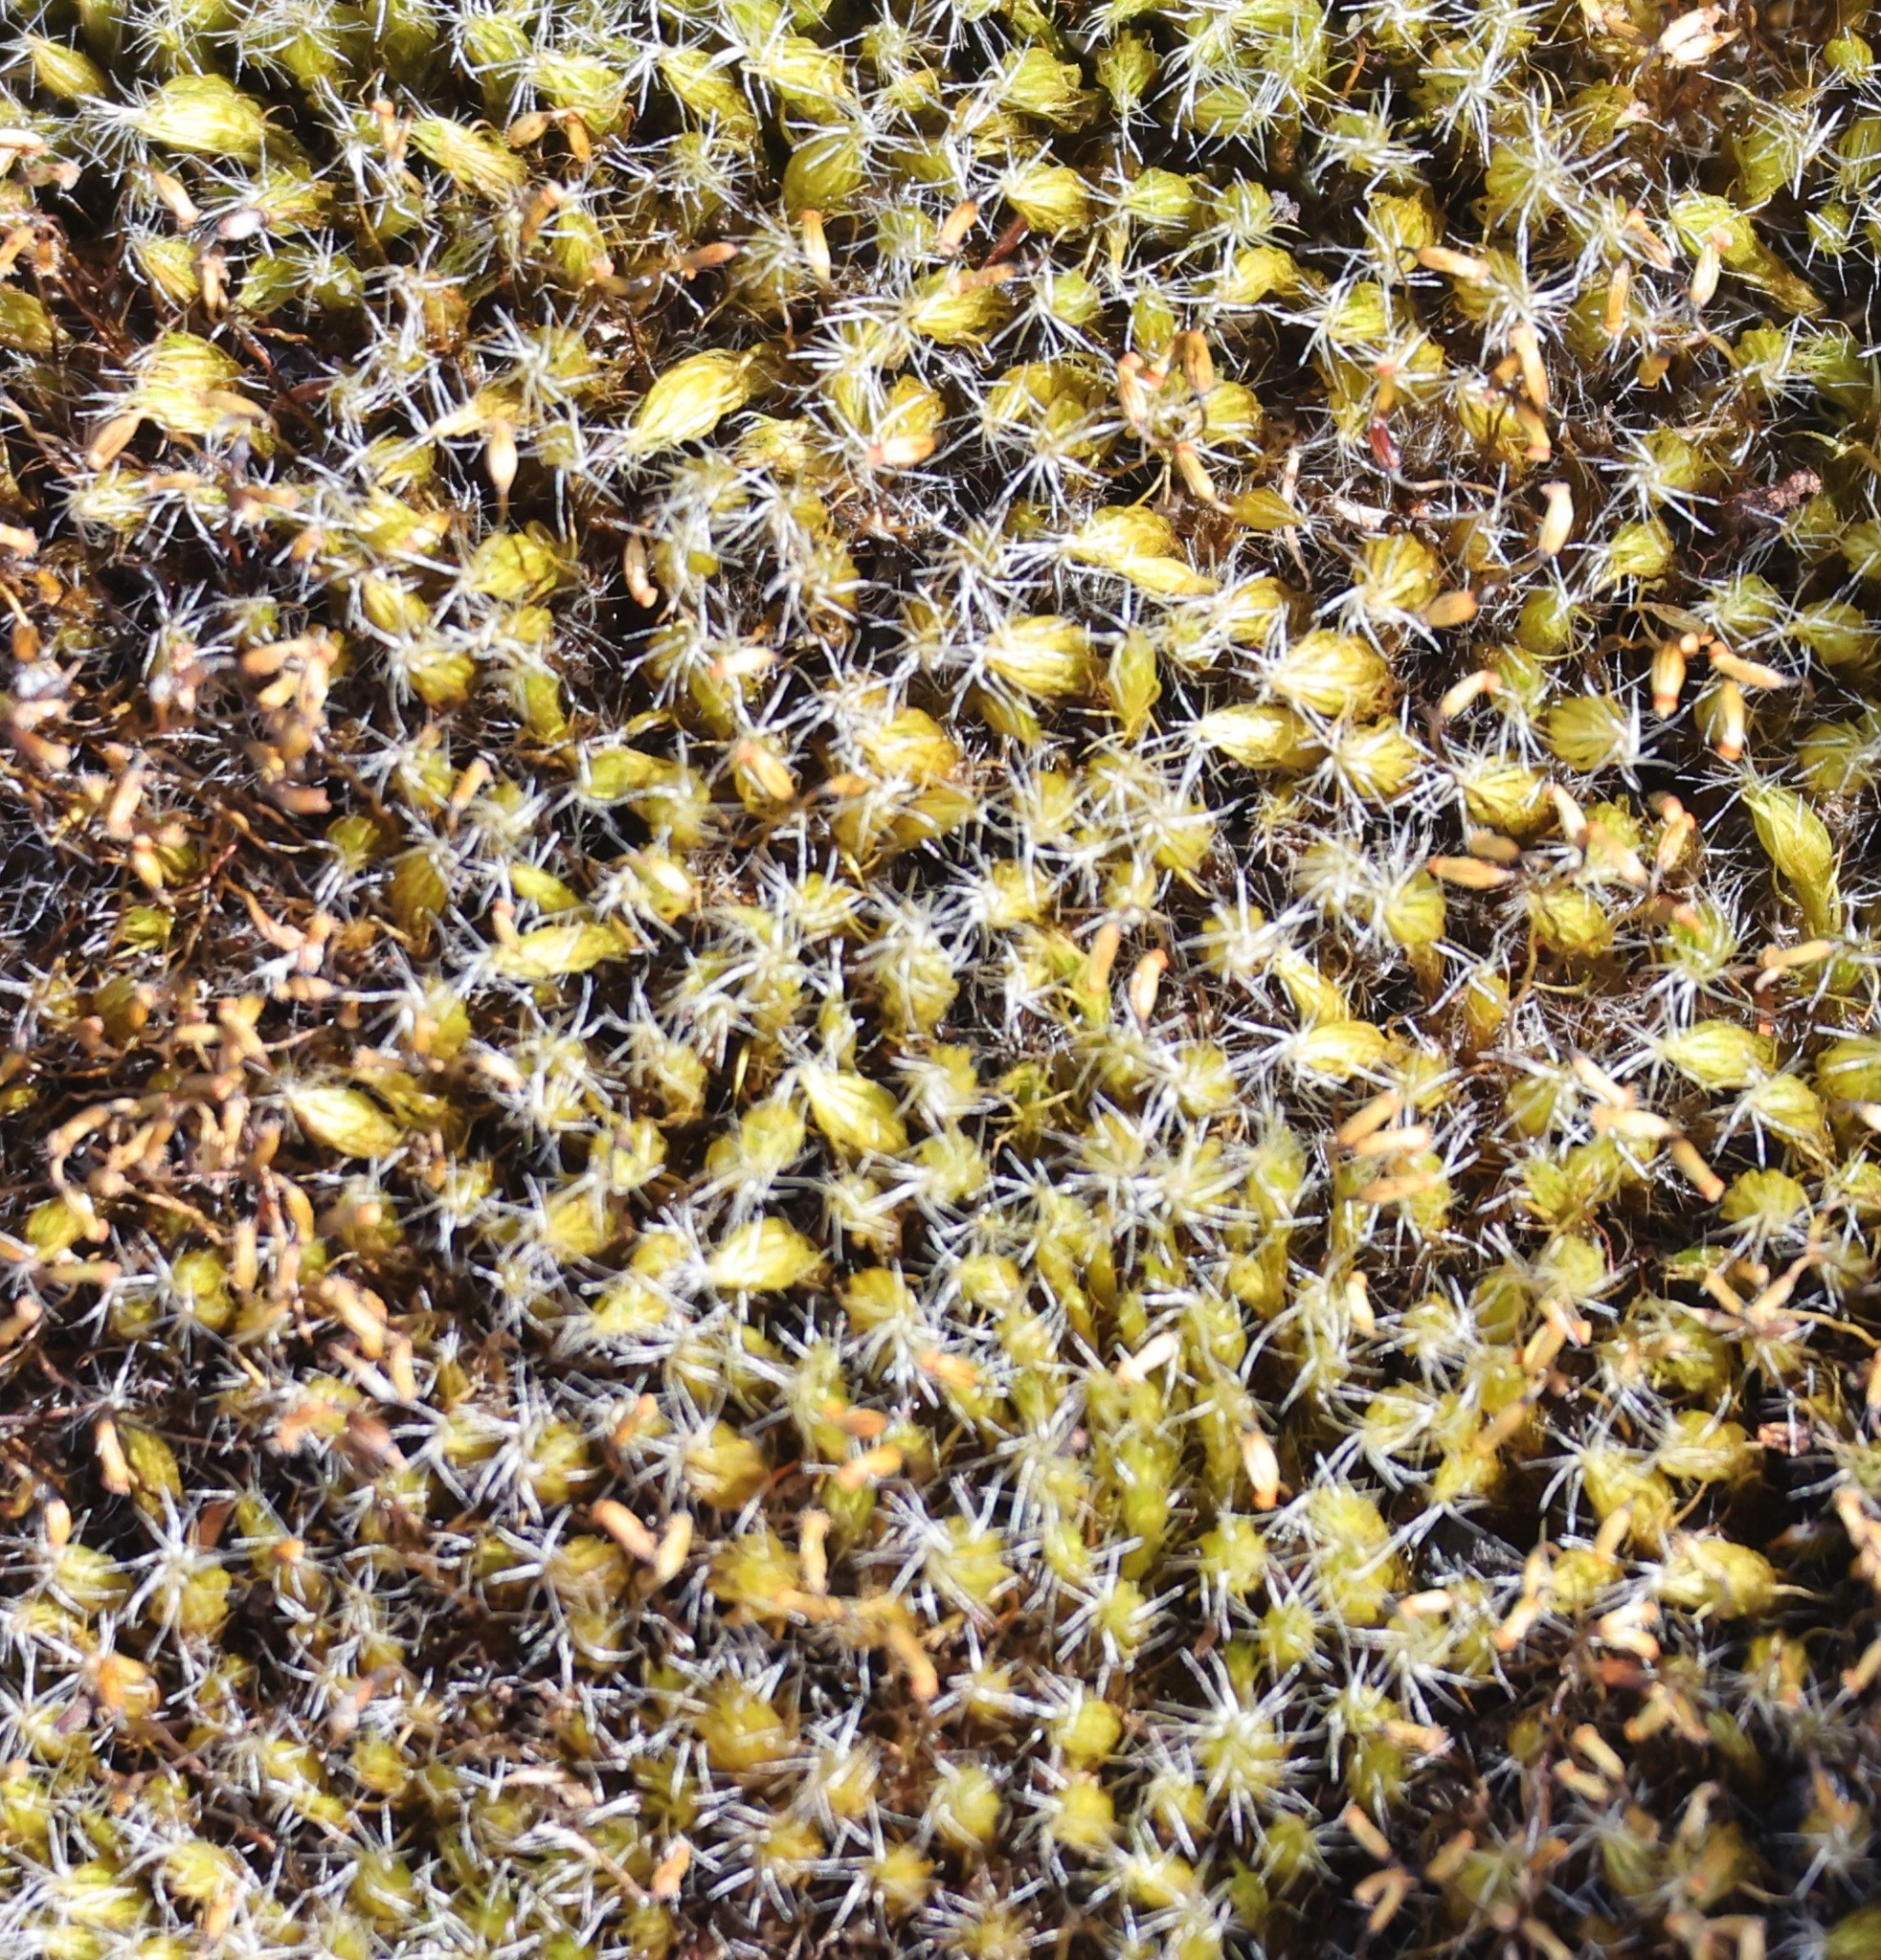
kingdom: Plantae
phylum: Bryophyta
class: Bryopsida
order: Dicranales
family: Leucobryaceae
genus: Campylopus
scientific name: Campylopus introflexus
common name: Heath star moss
